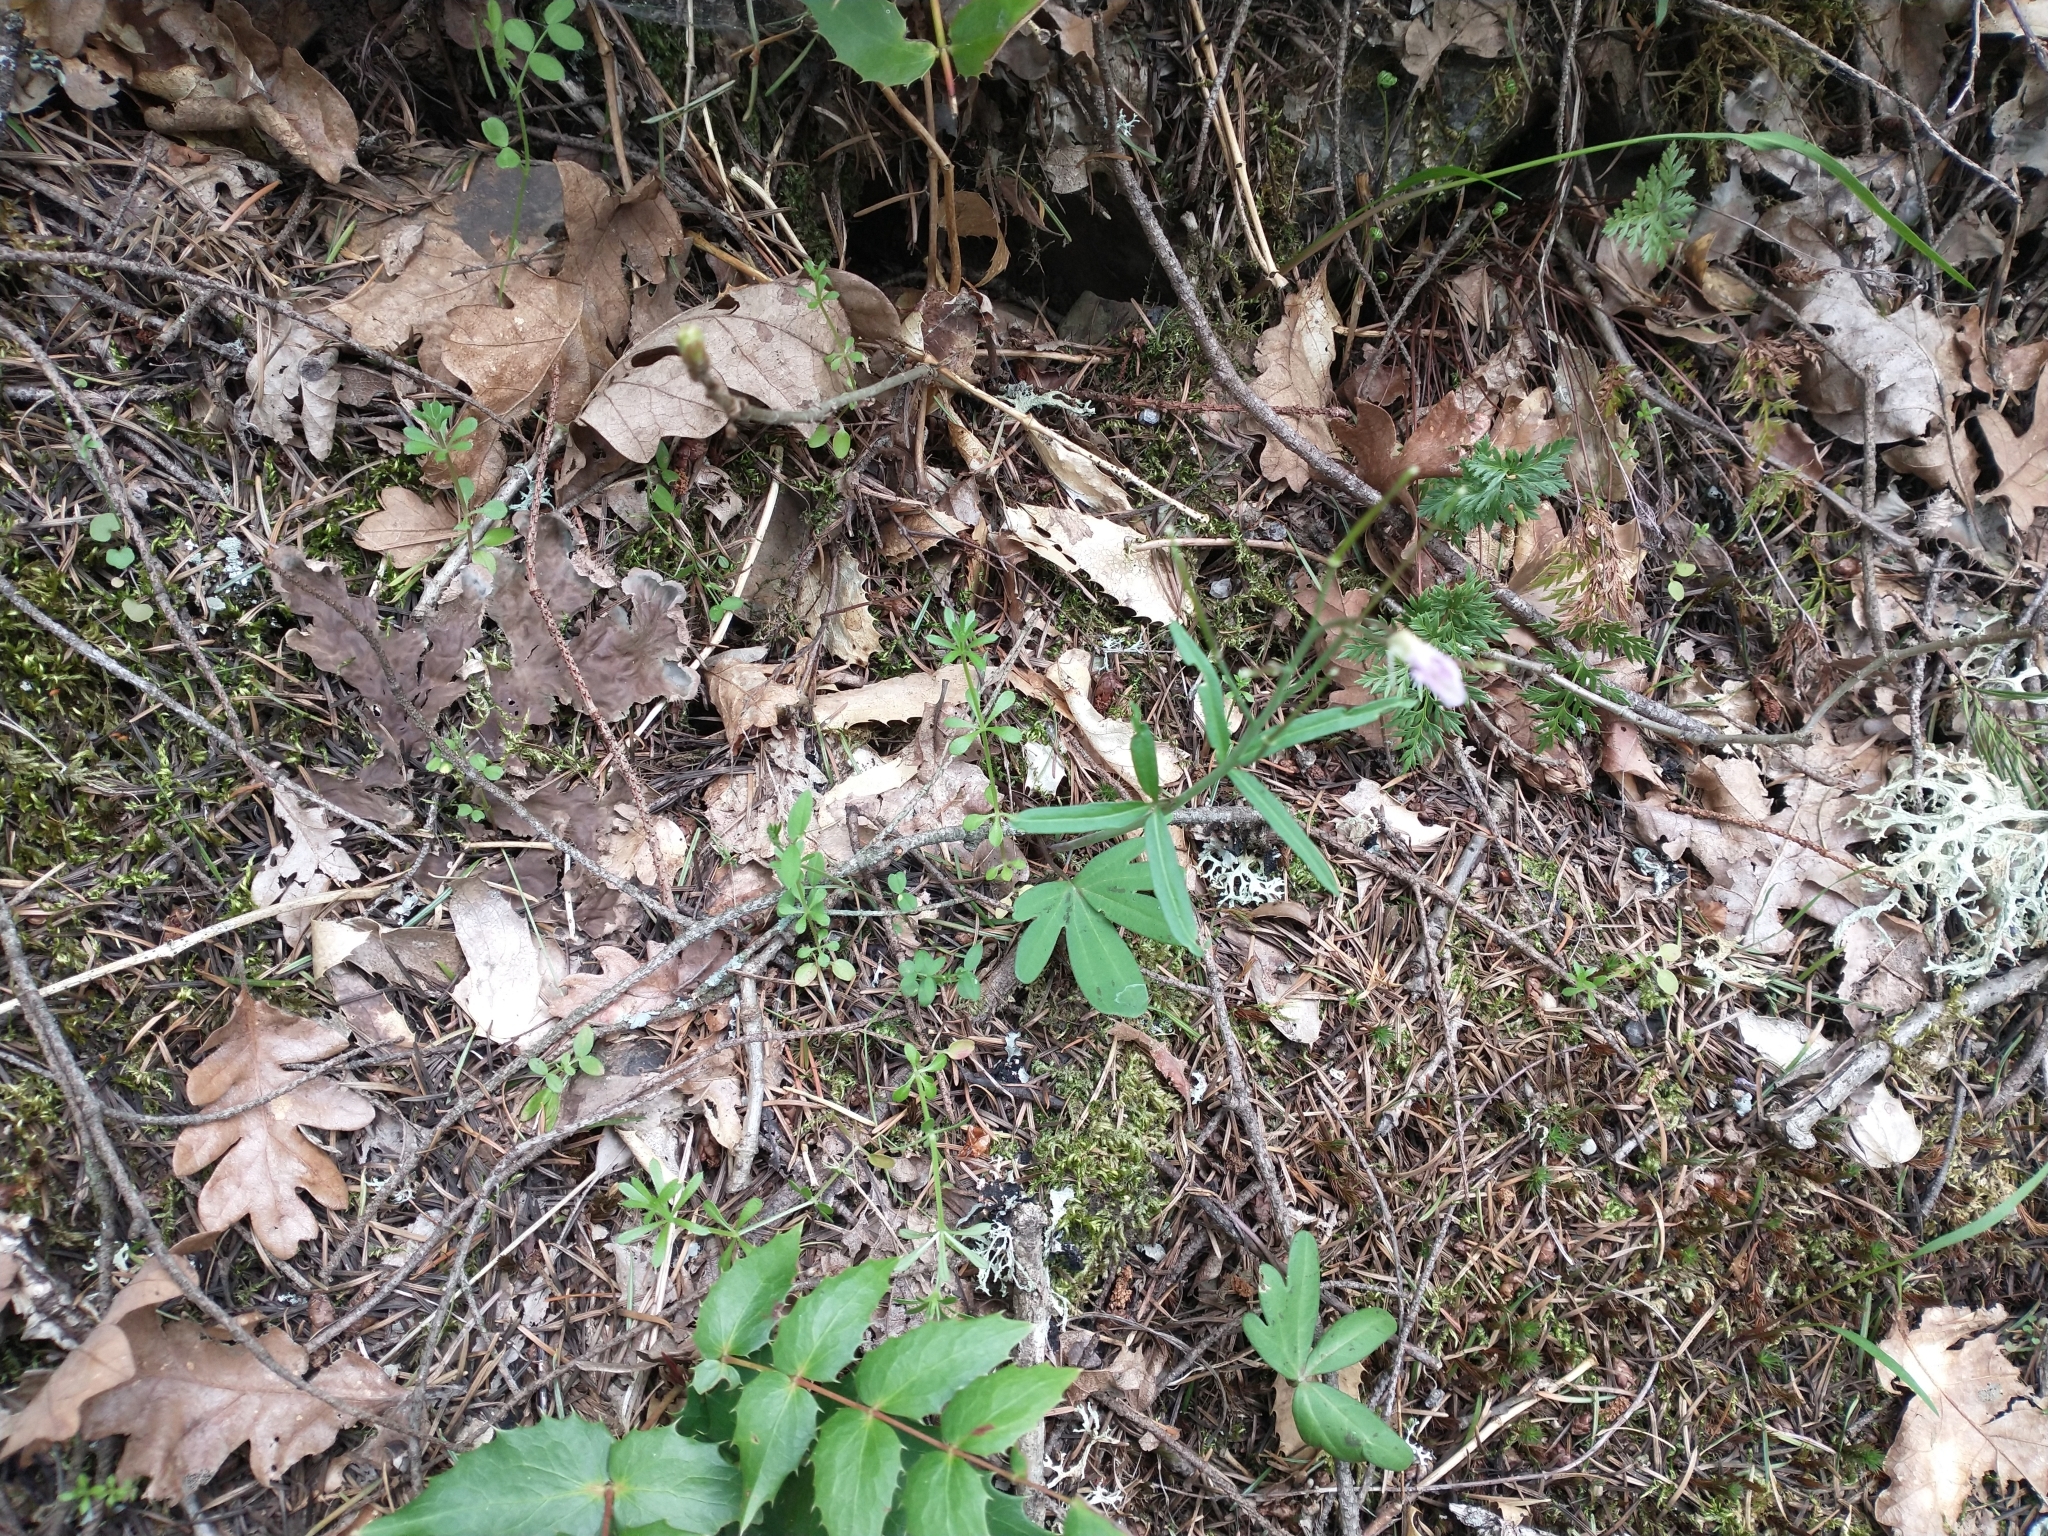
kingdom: Plantae
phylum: Tracheophyta
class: Magnoliopsida
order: Brassicales
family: Brassicaceae
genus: Cardamine
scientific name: Cardamine nuttallii
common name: Nuttall's toothwort
